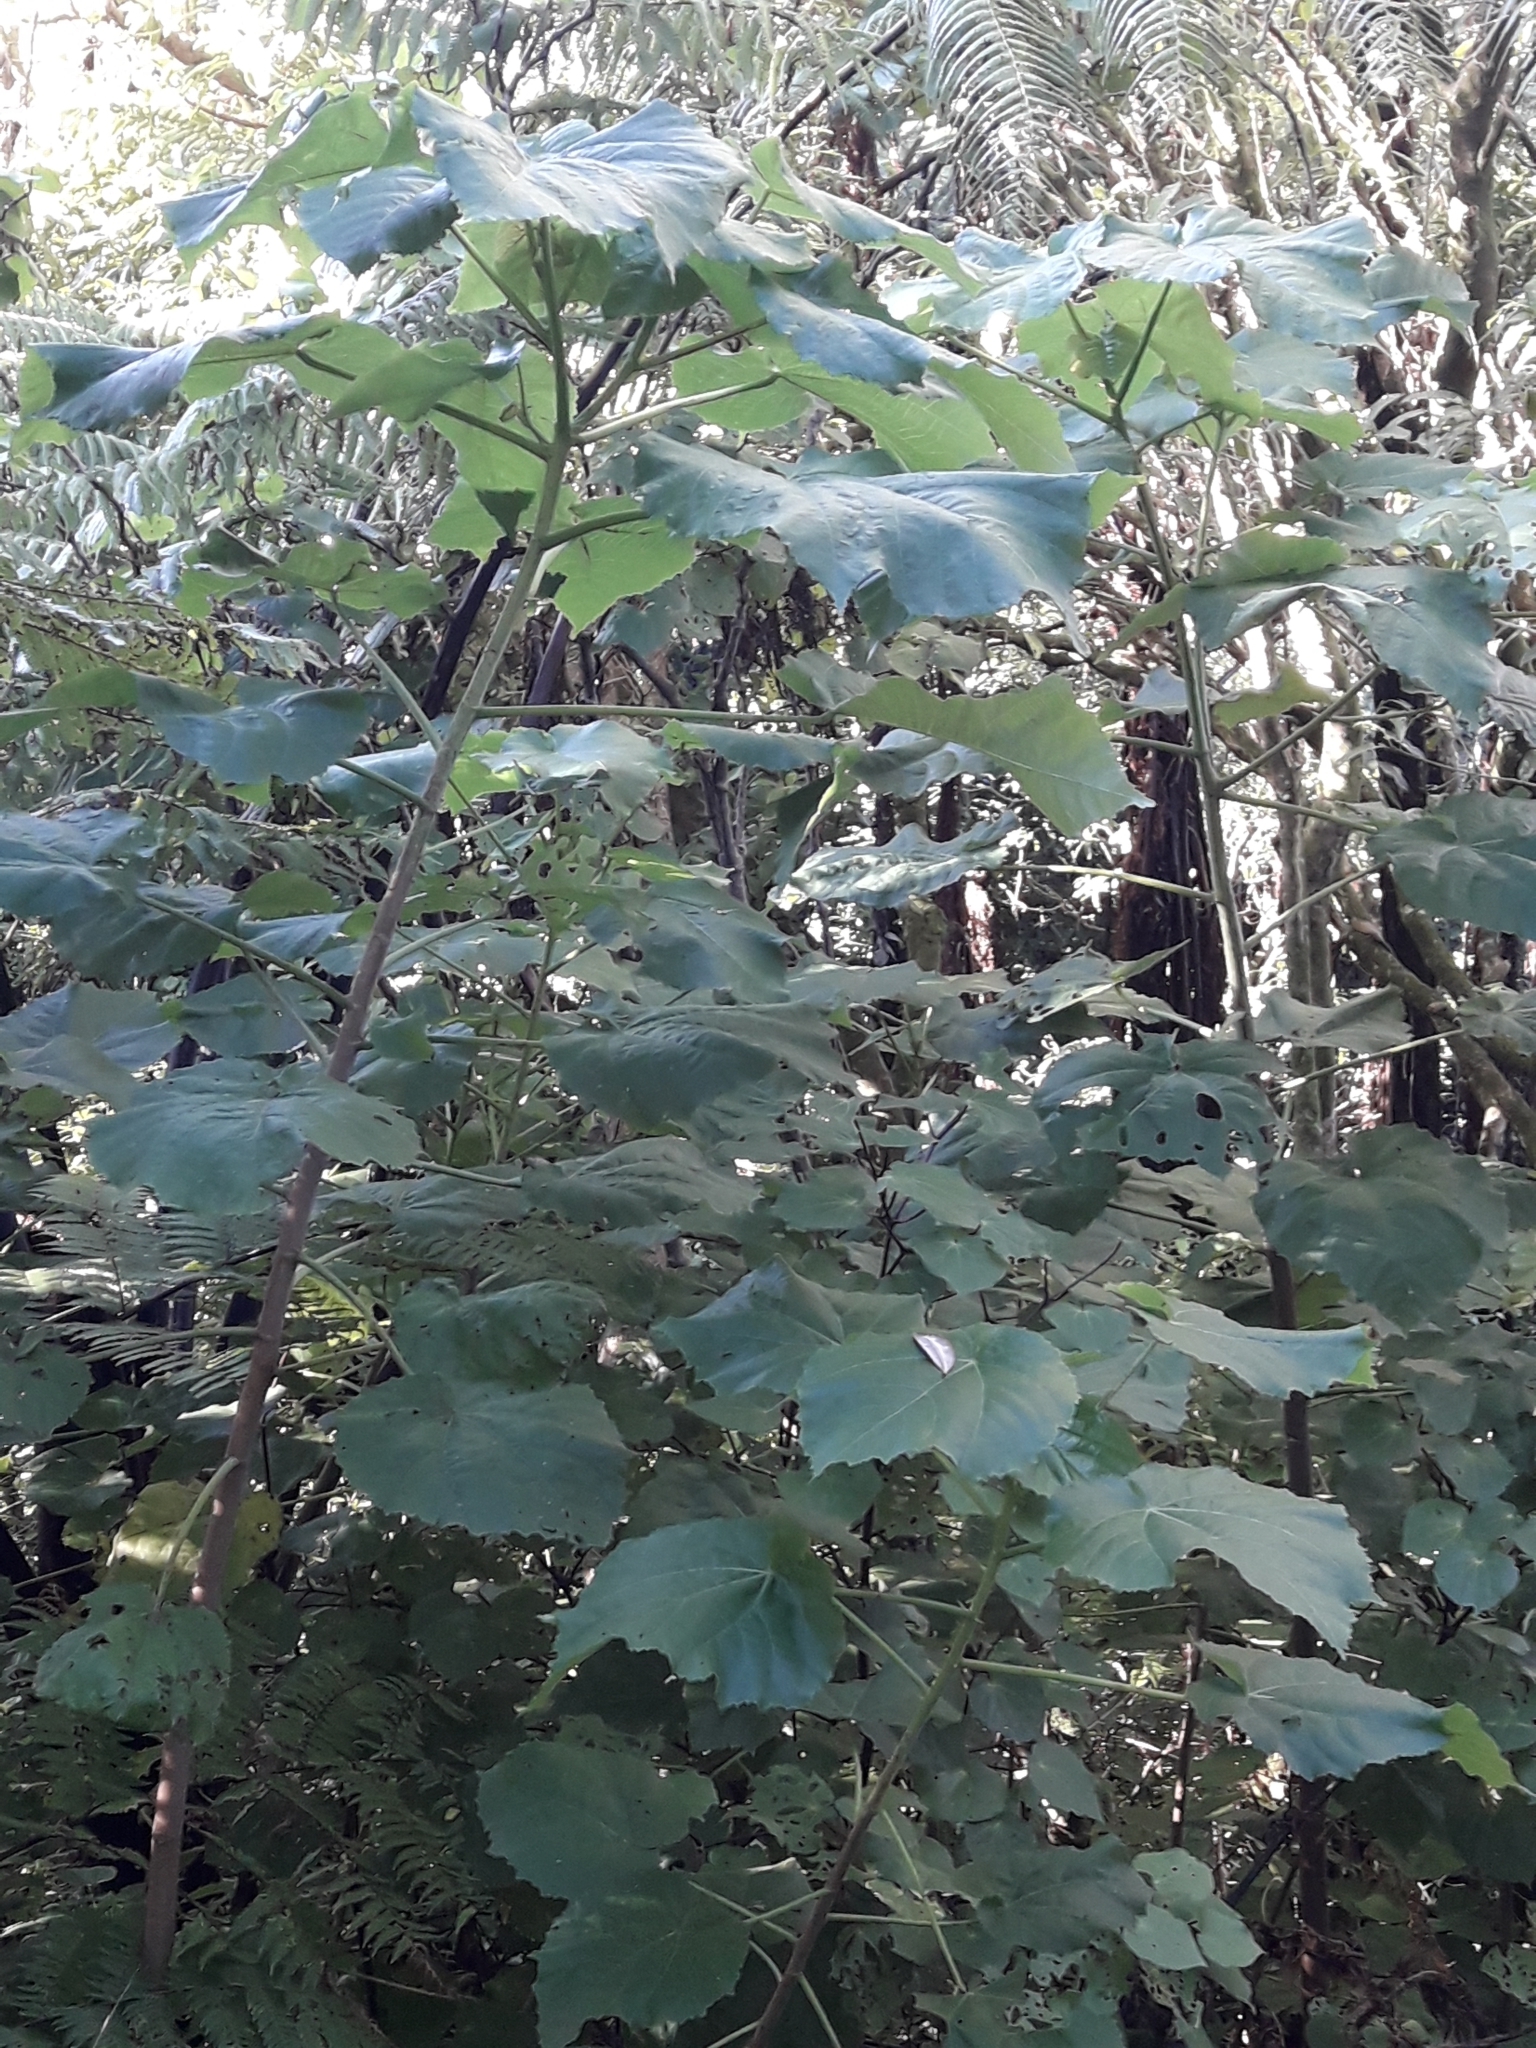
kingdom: Plantae
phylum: Tracheophyta
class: Magnoliopsida
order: Malvales
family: Malvaceae
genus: Entelea
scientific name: Entelea arborescens
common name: New zealand-mulberry
